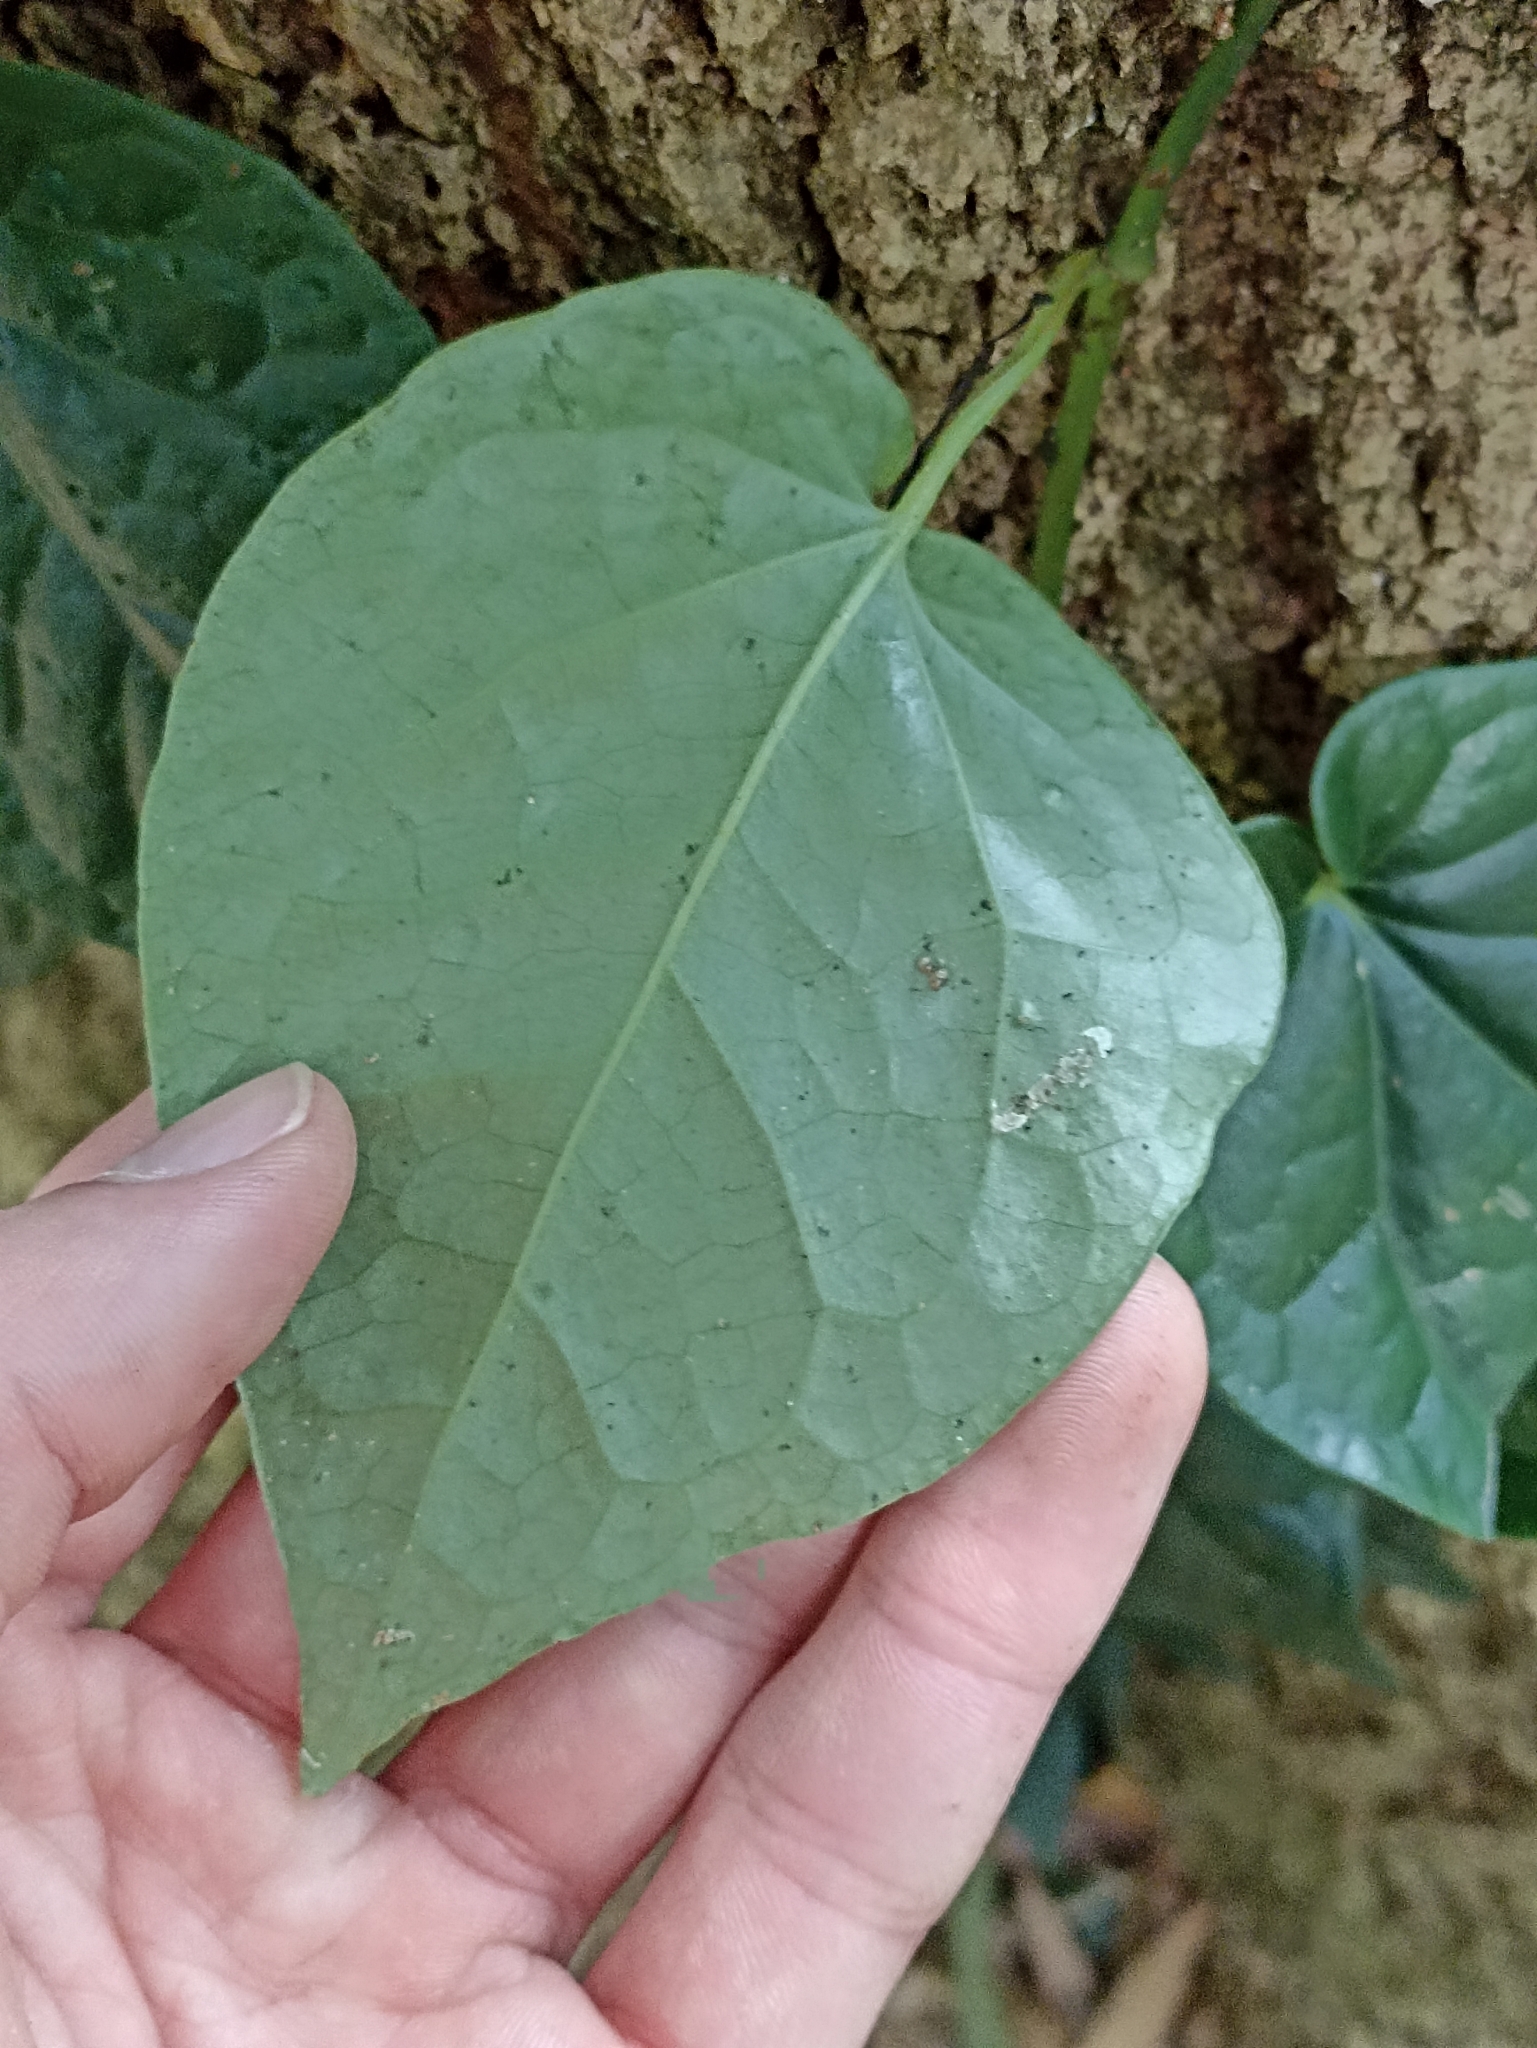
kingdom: Plantae
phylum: Tracheophyta
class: Magnoliopsida
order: Piperales
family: Piperaceae
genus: Piper
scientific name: Piper hederaceum
